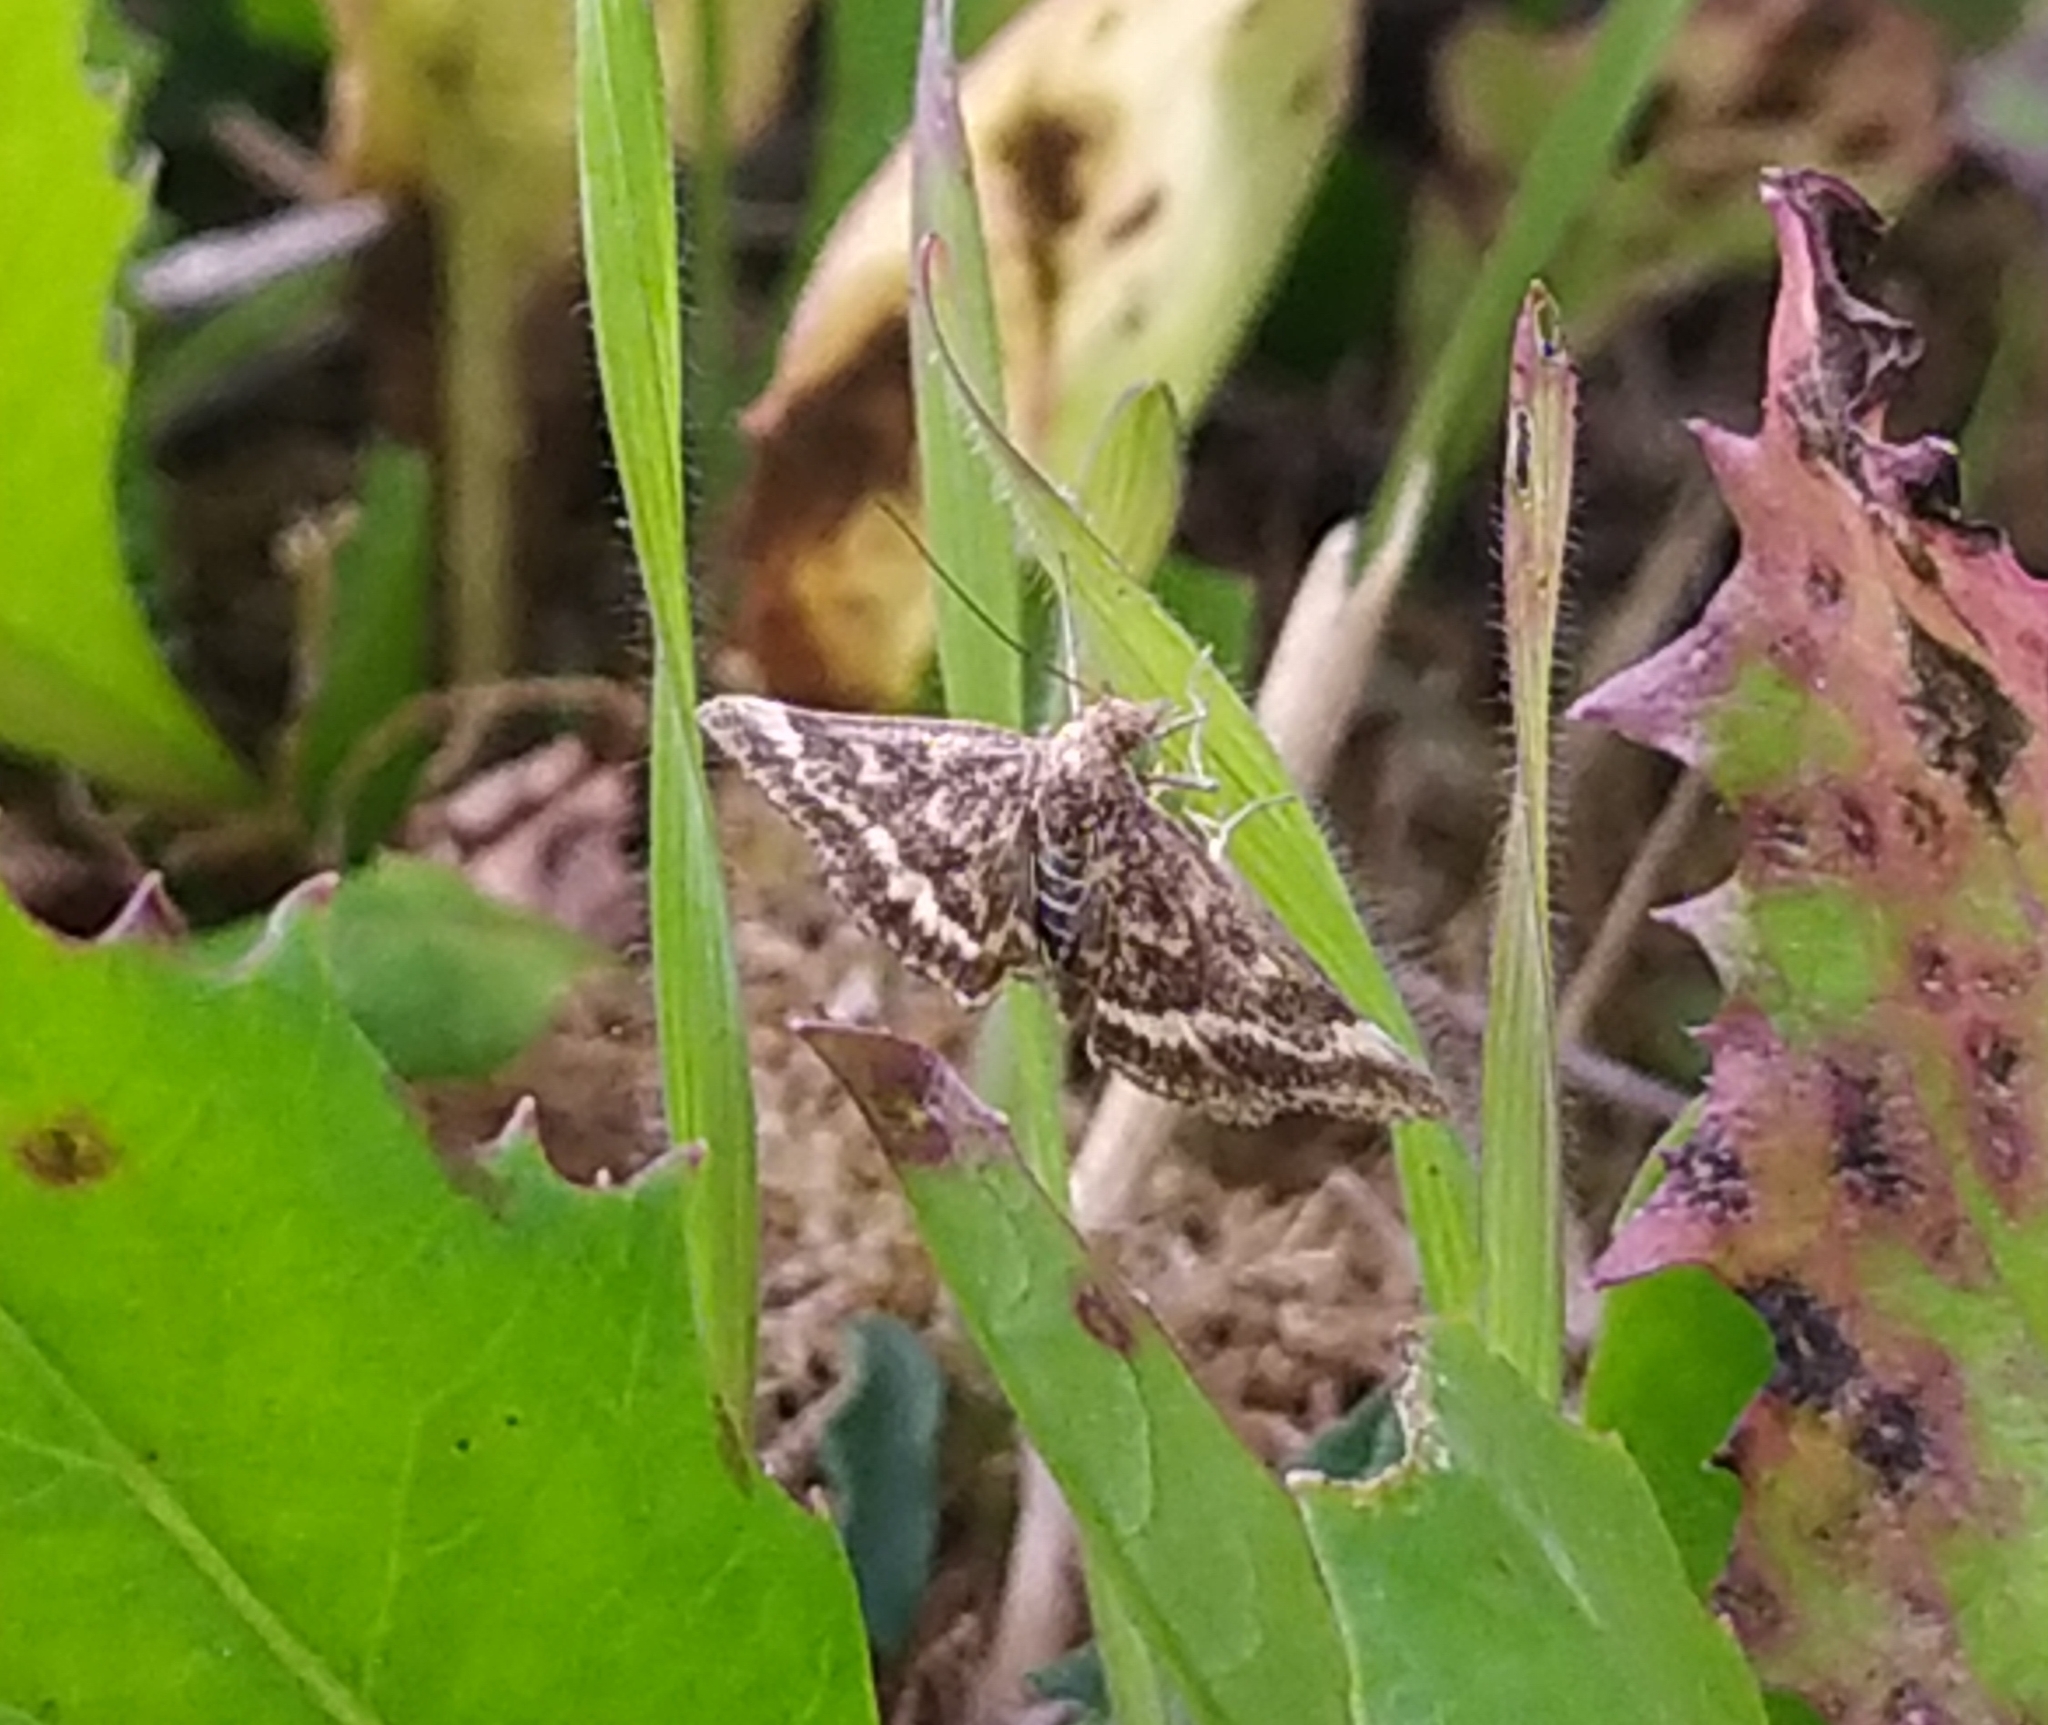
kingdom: Animalia
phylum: Arthropoda
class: Insecta
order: Lepidoptera
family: Crambidae
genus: Pyrausta
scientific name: Pyrausta despicata
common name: Straw-barred pearl
